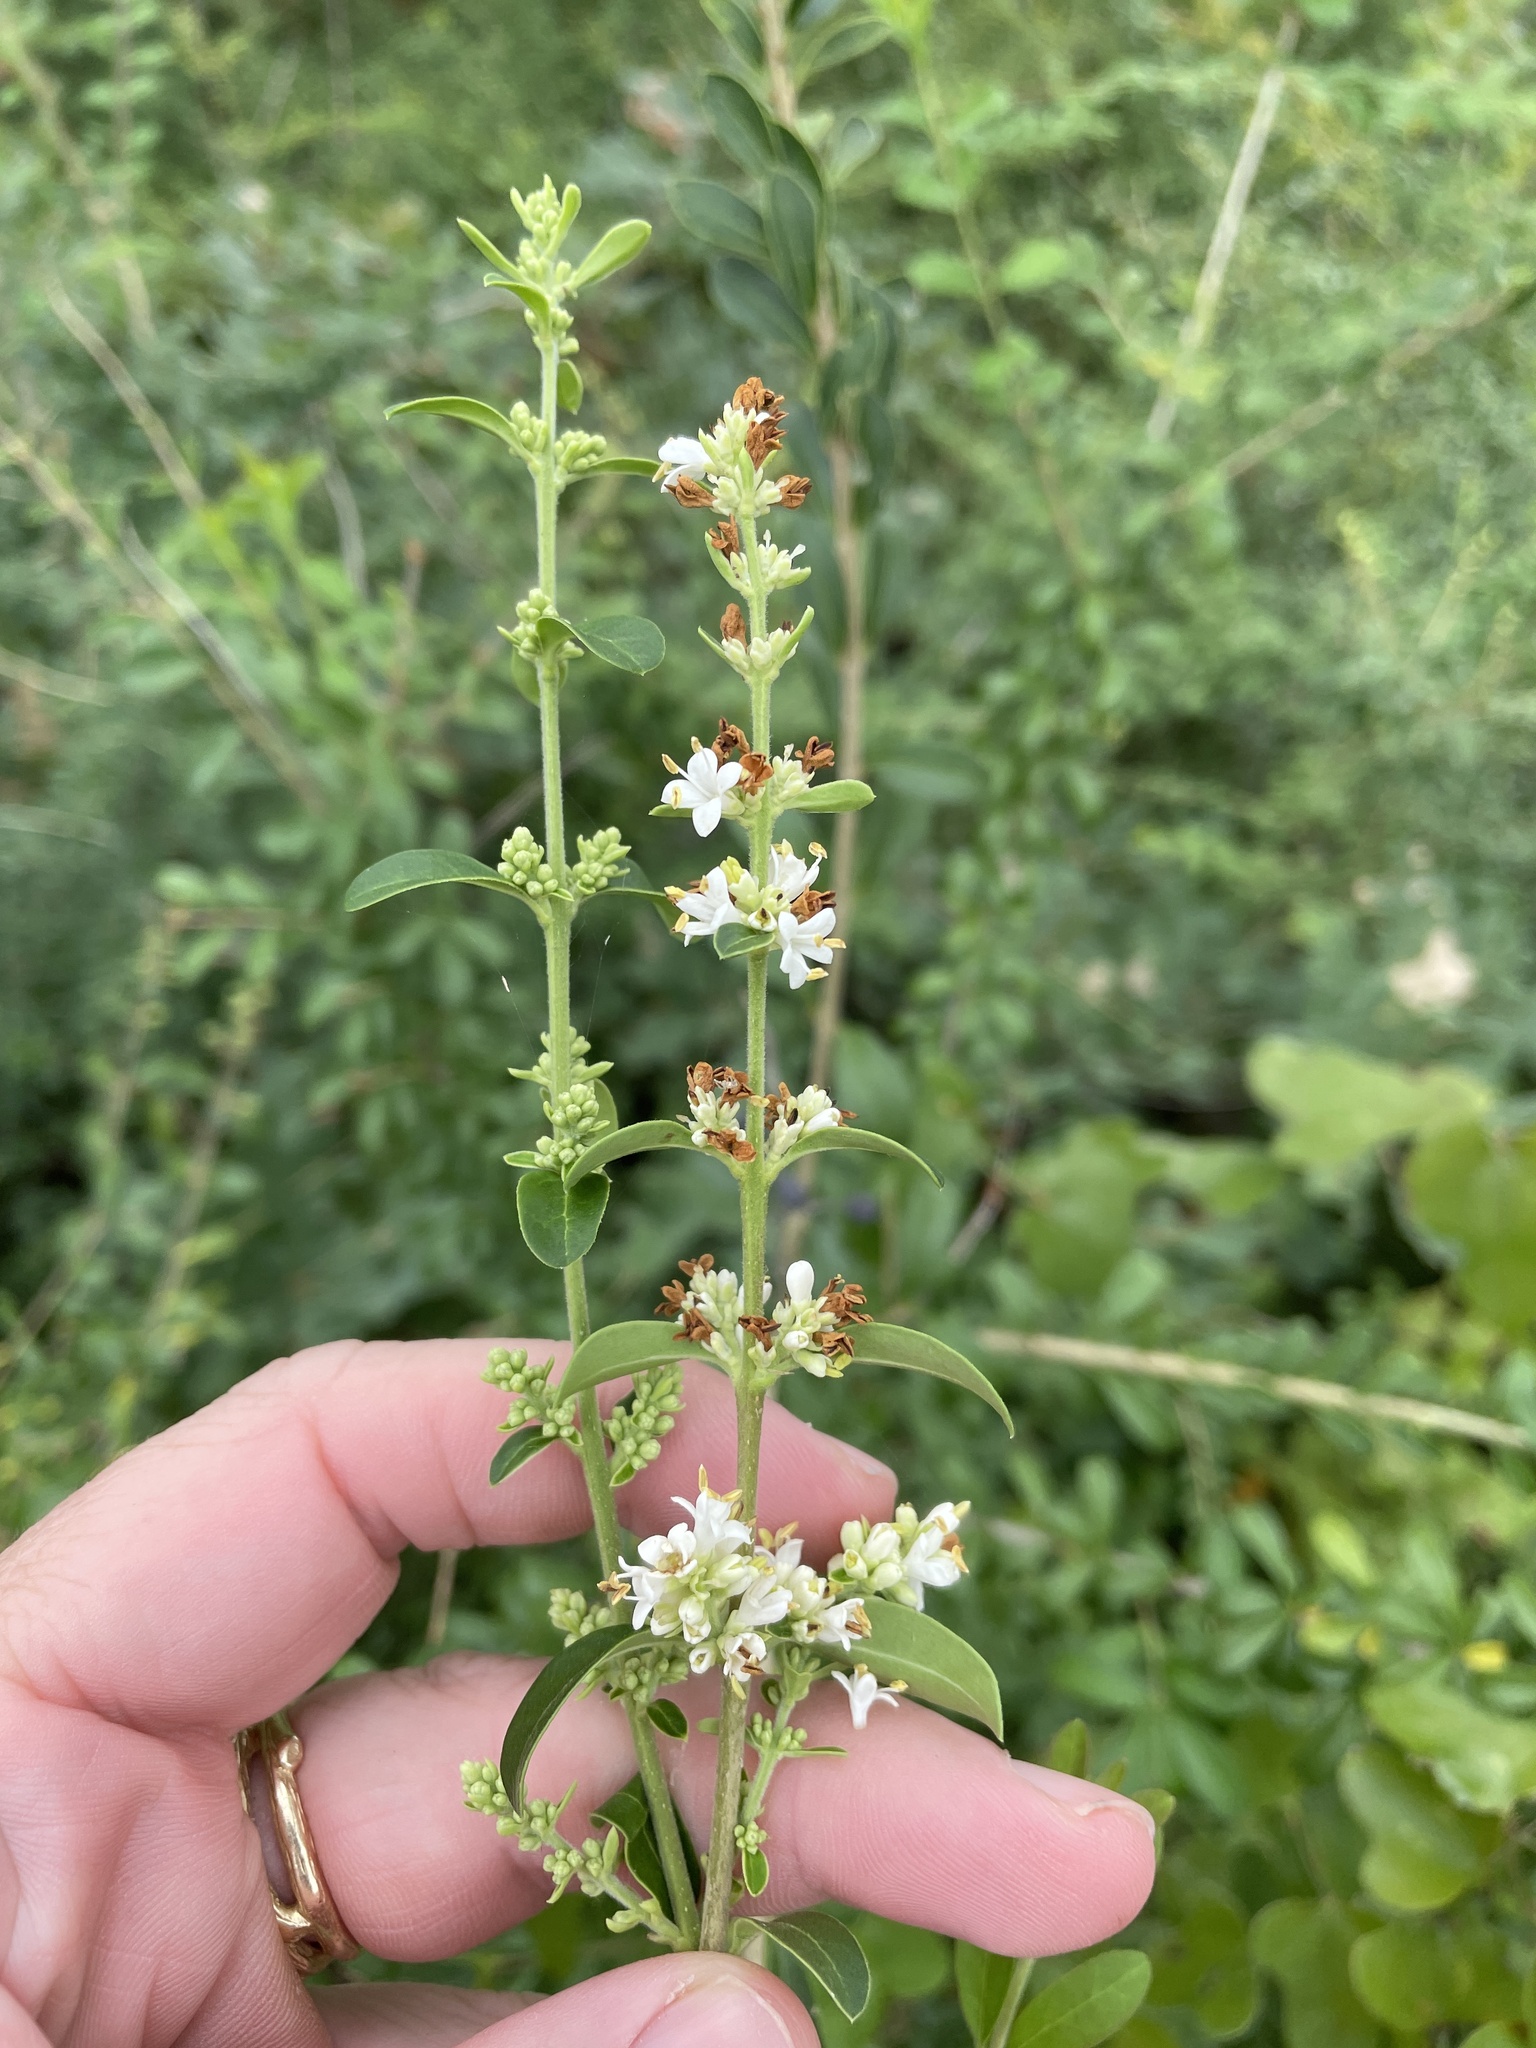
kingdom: Plantae
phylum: Tracheophyta
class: Magnoliopsida
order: Lamiales
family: Oleaceae
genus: Ligustrum
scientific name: Ligustrum quihoui
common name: Waxyleaf privet
